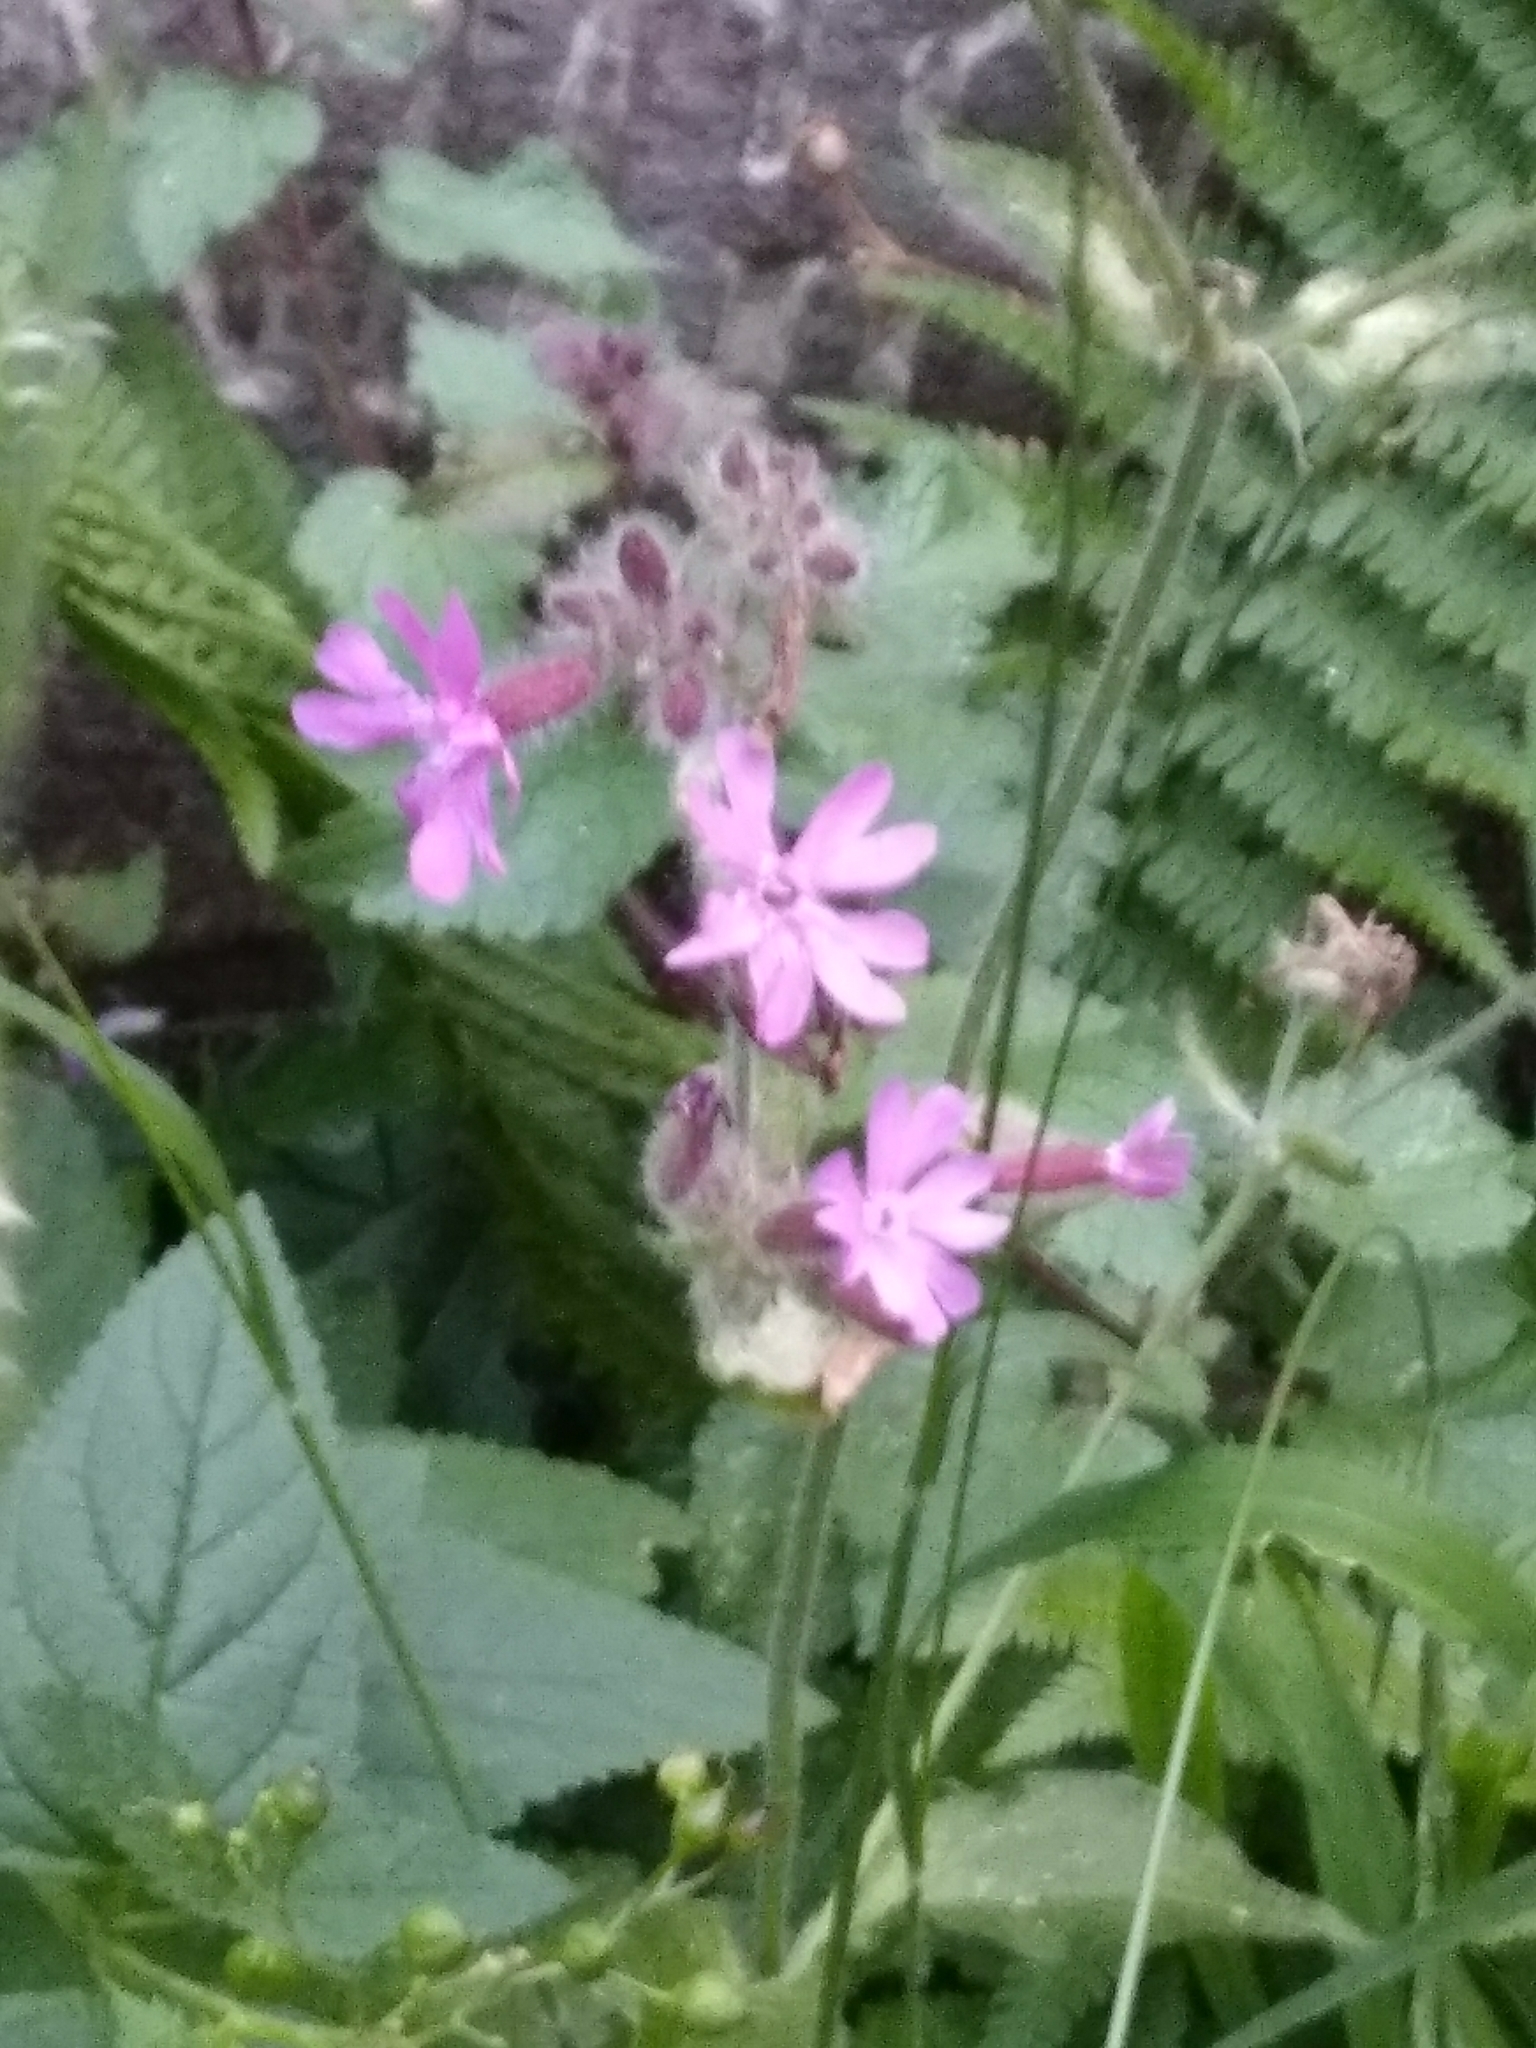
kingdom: Plantae
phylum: Tracheophyta
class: Magnoliopsida
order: Caryophyllales
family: Caryophyllaceae
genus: Silene
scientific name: Silene dioica
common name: Red campion
